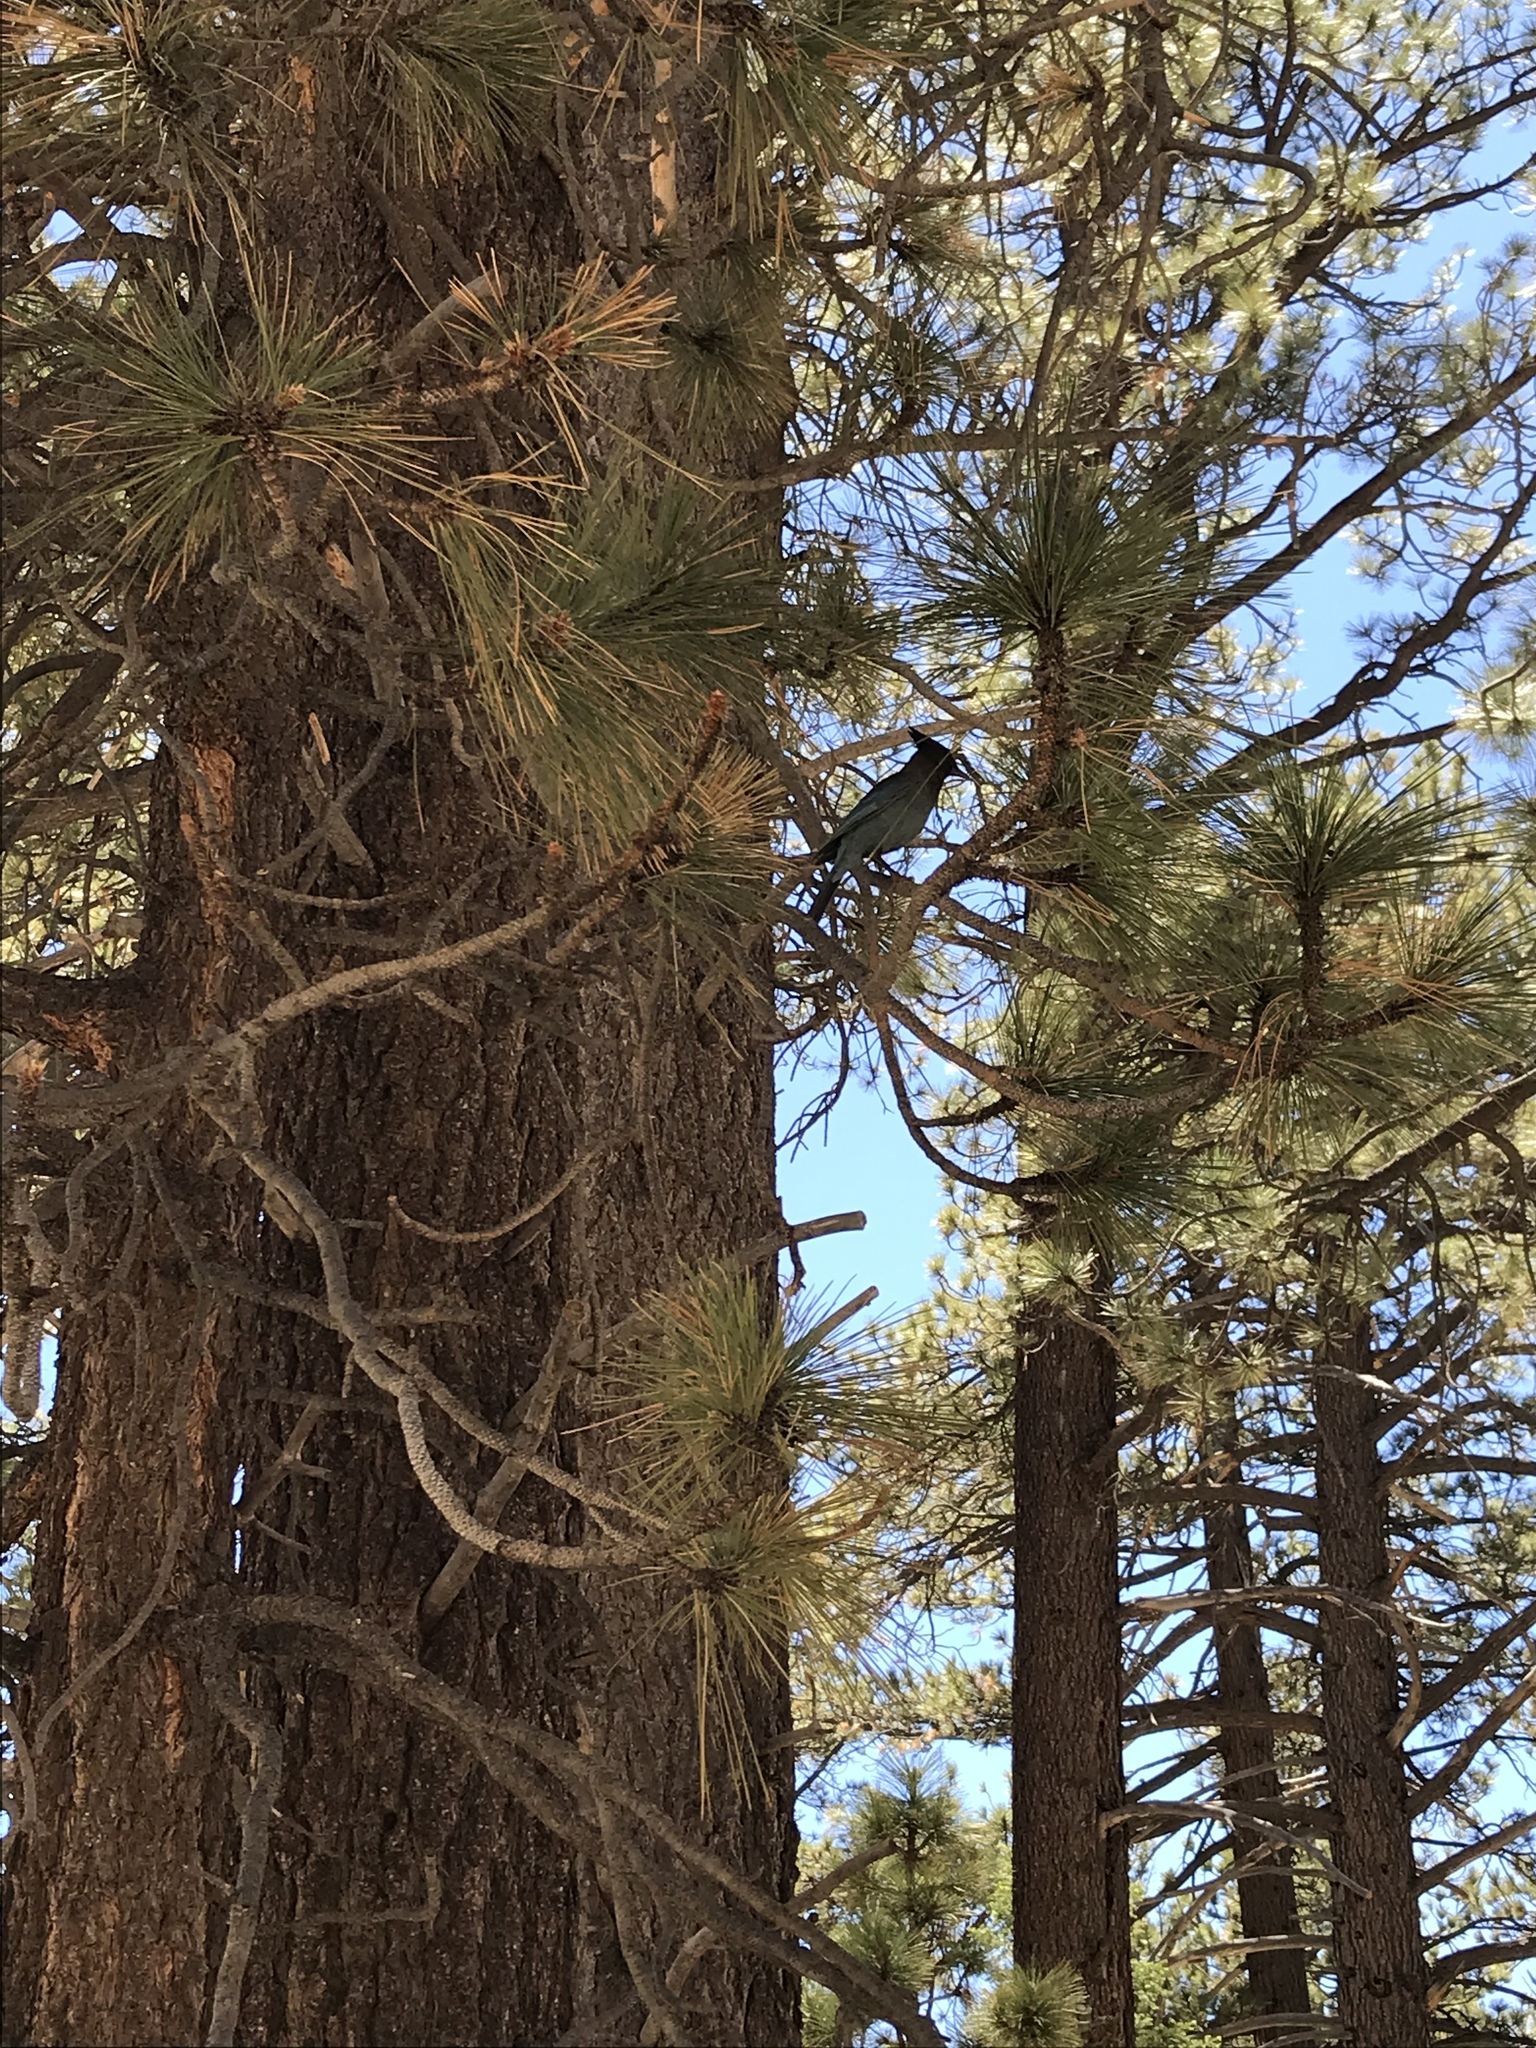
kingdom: Animalia
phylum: Chordata
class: Aves
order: Passeriformes
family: Corvidae
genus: Cyanocitta
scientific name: Cyanocitta stelleri
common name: Steller's jay
